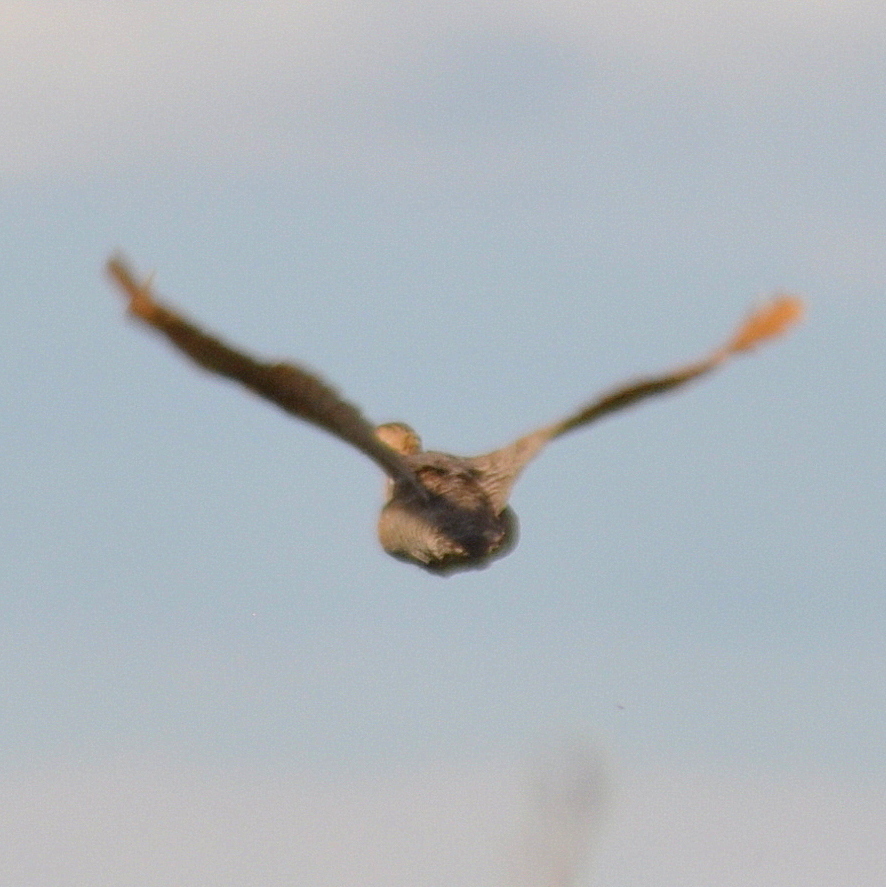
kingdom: Animalia
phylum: Chordata
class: Aves
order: Tinamiformes
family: Tinamidae
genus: Rhynchotus
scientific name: Rhynchotus rufescens
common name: Red-winged tinamou
